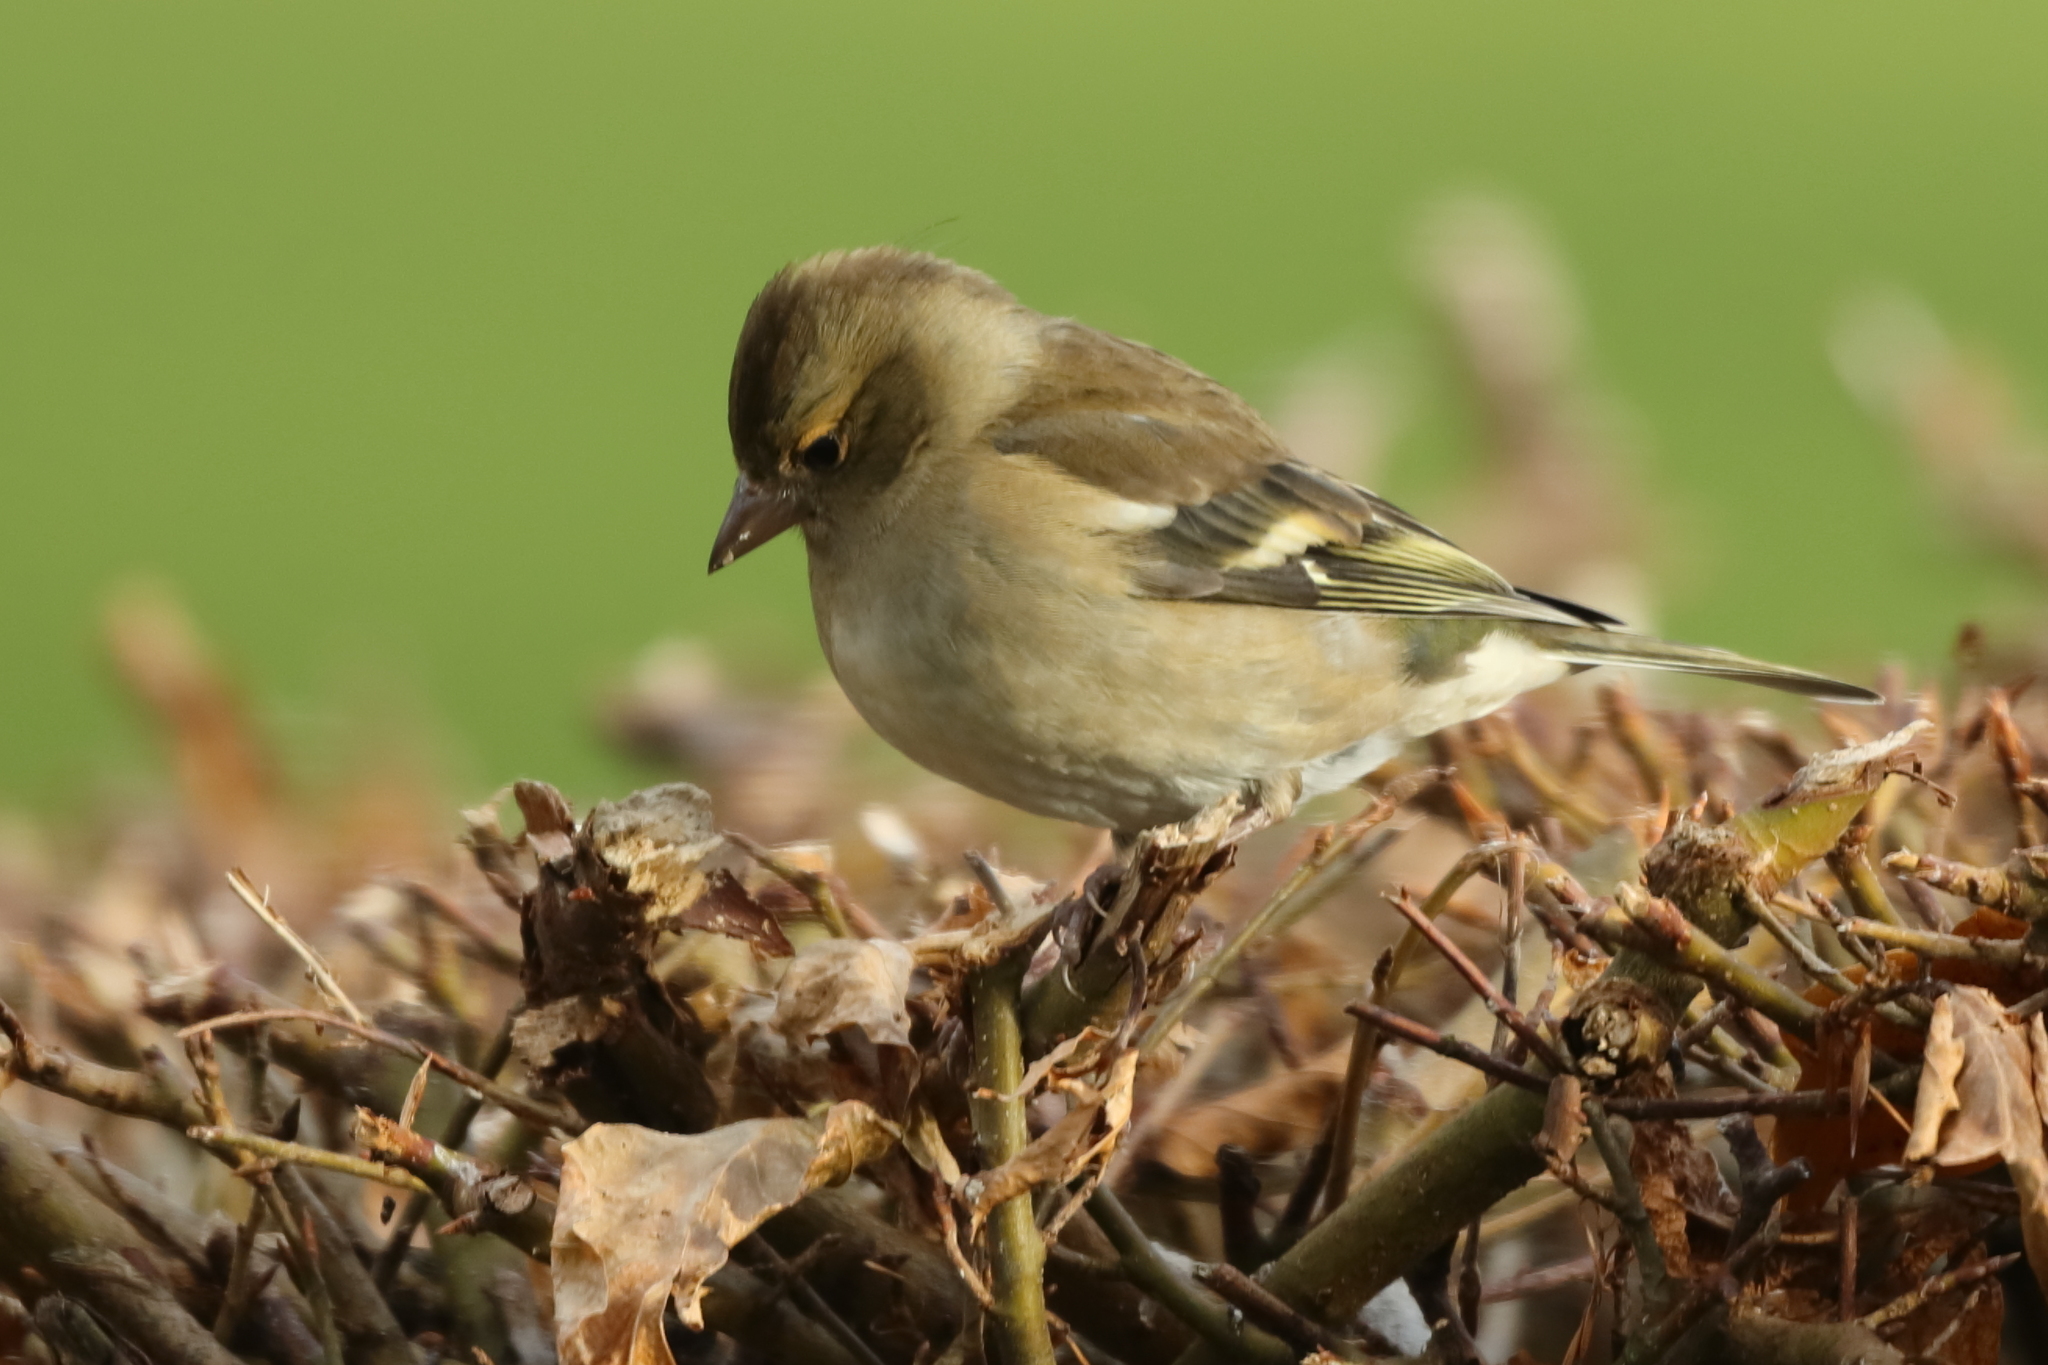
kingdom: Animalia
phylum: Chordata
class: Aves
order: Passeriformes
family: Fringillidae
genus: Fringilla
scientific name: Fringilla coelebs
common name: Common chaffinch
